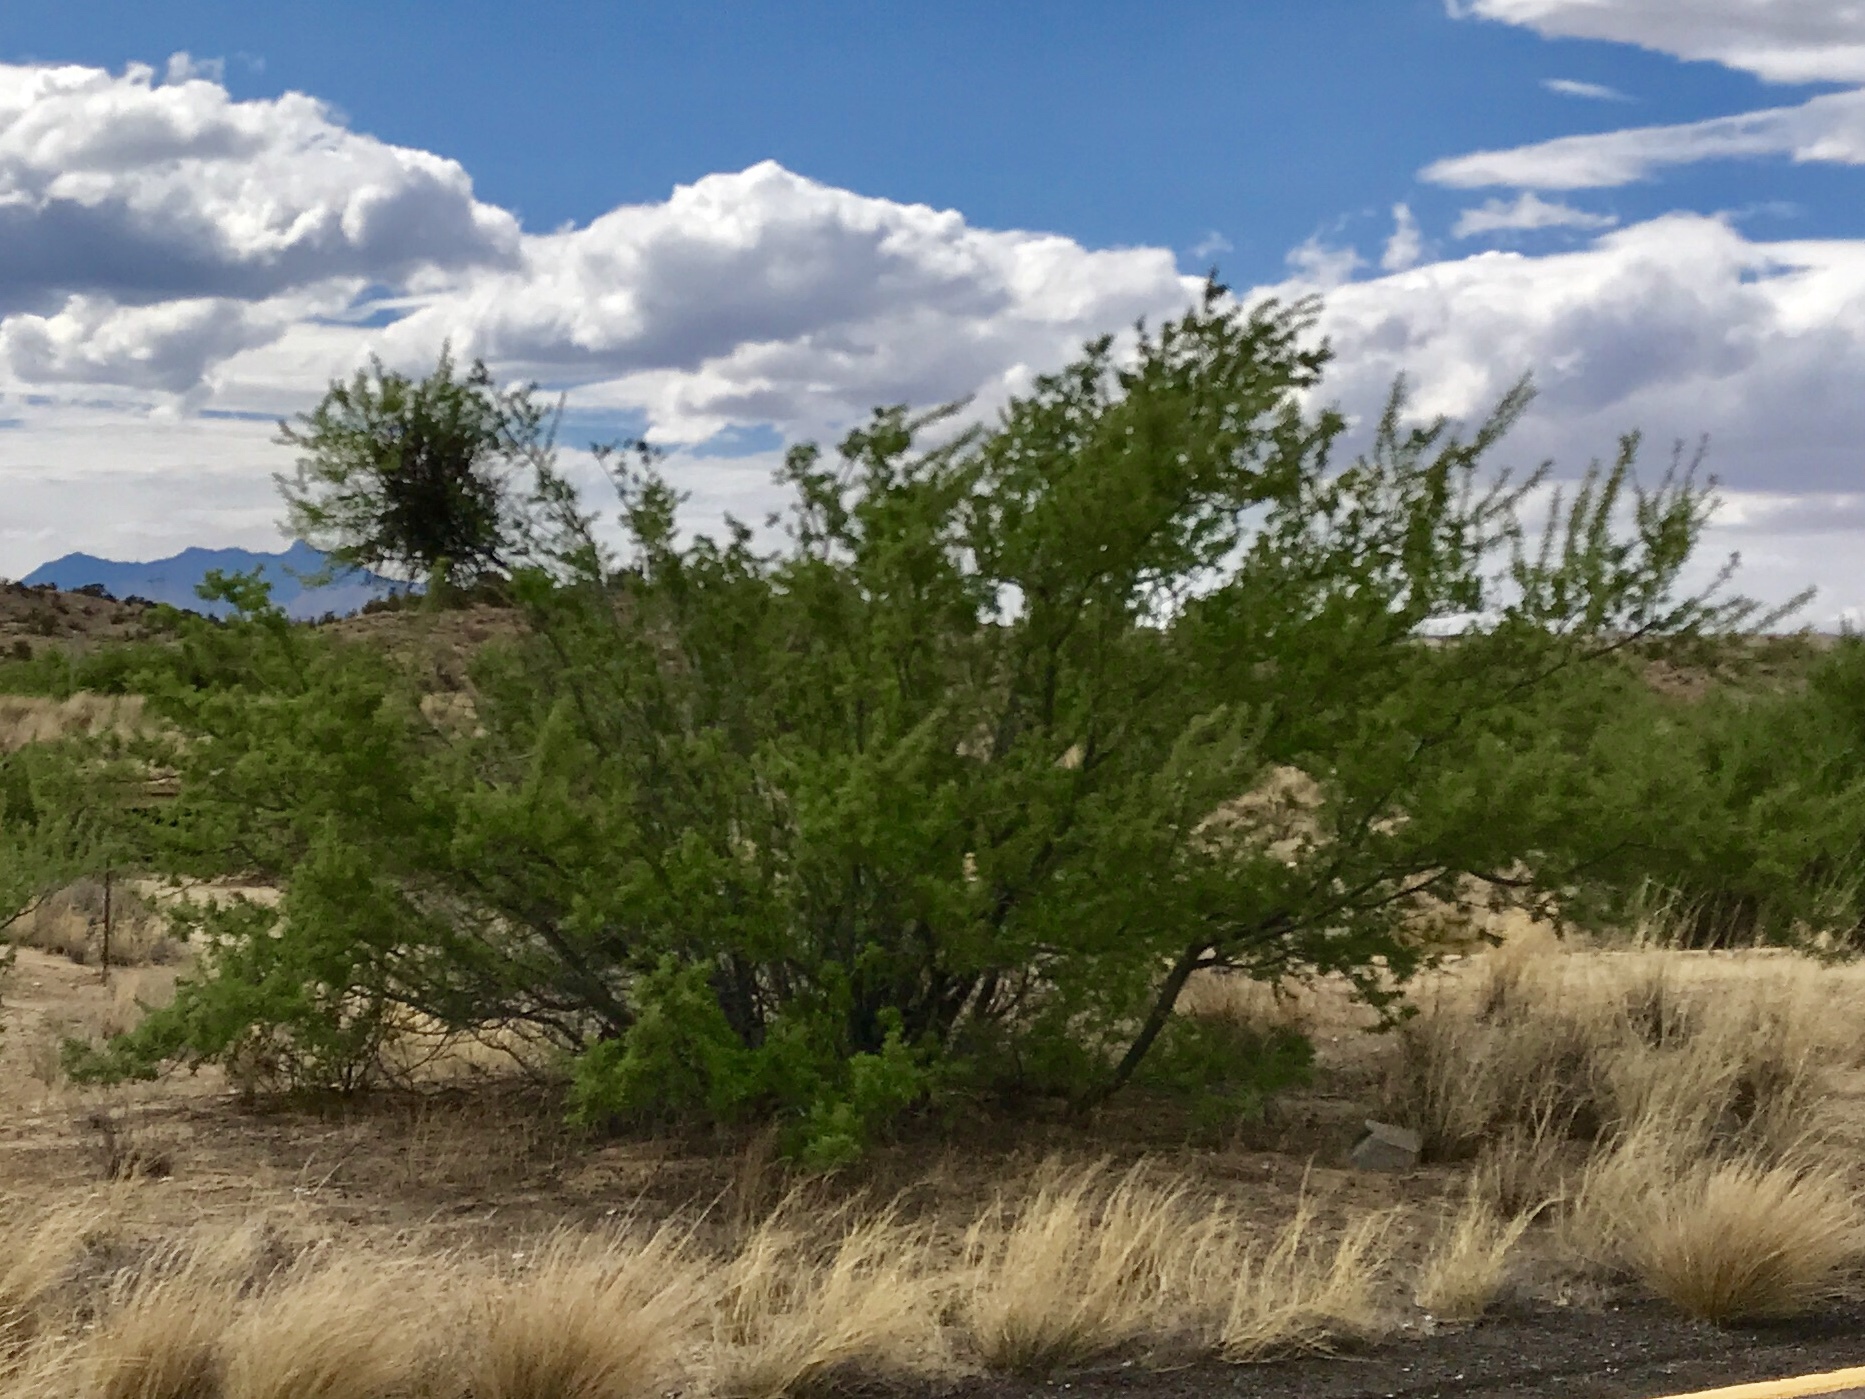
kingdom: Plantae
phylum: Tracheophyta
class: Magnoliopsida
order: Fabales
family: Fabaceae
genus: Senegalia
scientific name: Senegalia greggii
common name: Texas-mimosa
